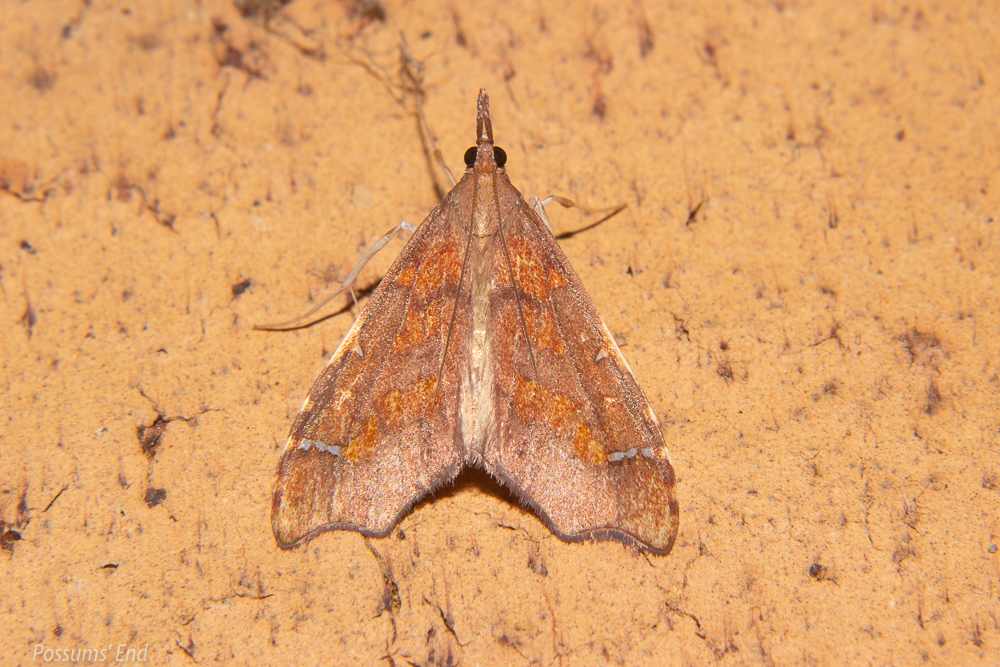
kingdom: Animalia
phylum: Arthropoda
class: Insecta
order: Lepidoptera
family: Crambidae
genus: Deana
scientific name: Deana hybreasalis
